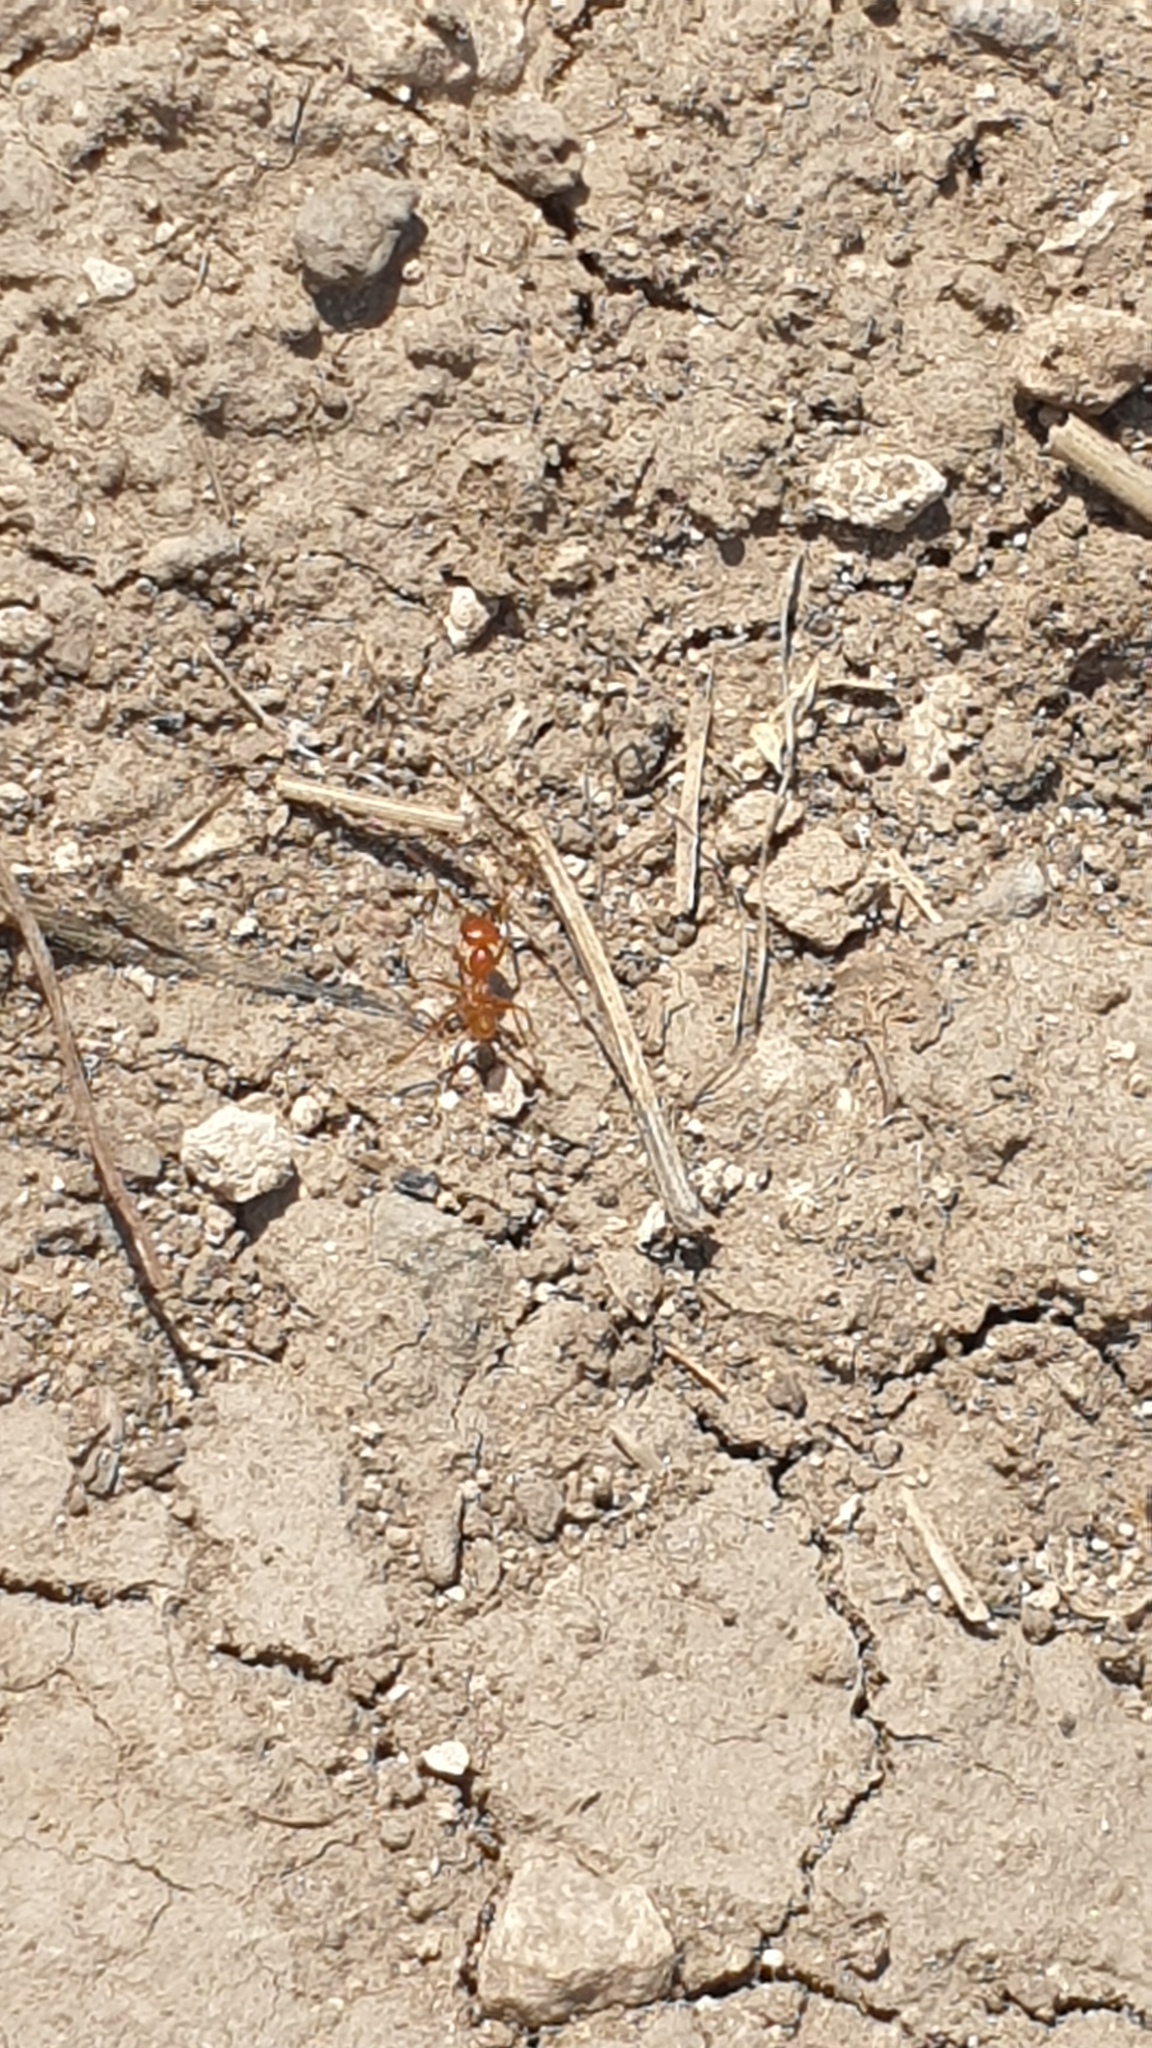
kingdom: Animalia
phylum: Arthropoda
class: Insecta
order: Hymenoptera
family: Formicidae
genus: Cataglyphis
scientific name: Cataglyphis lividus
